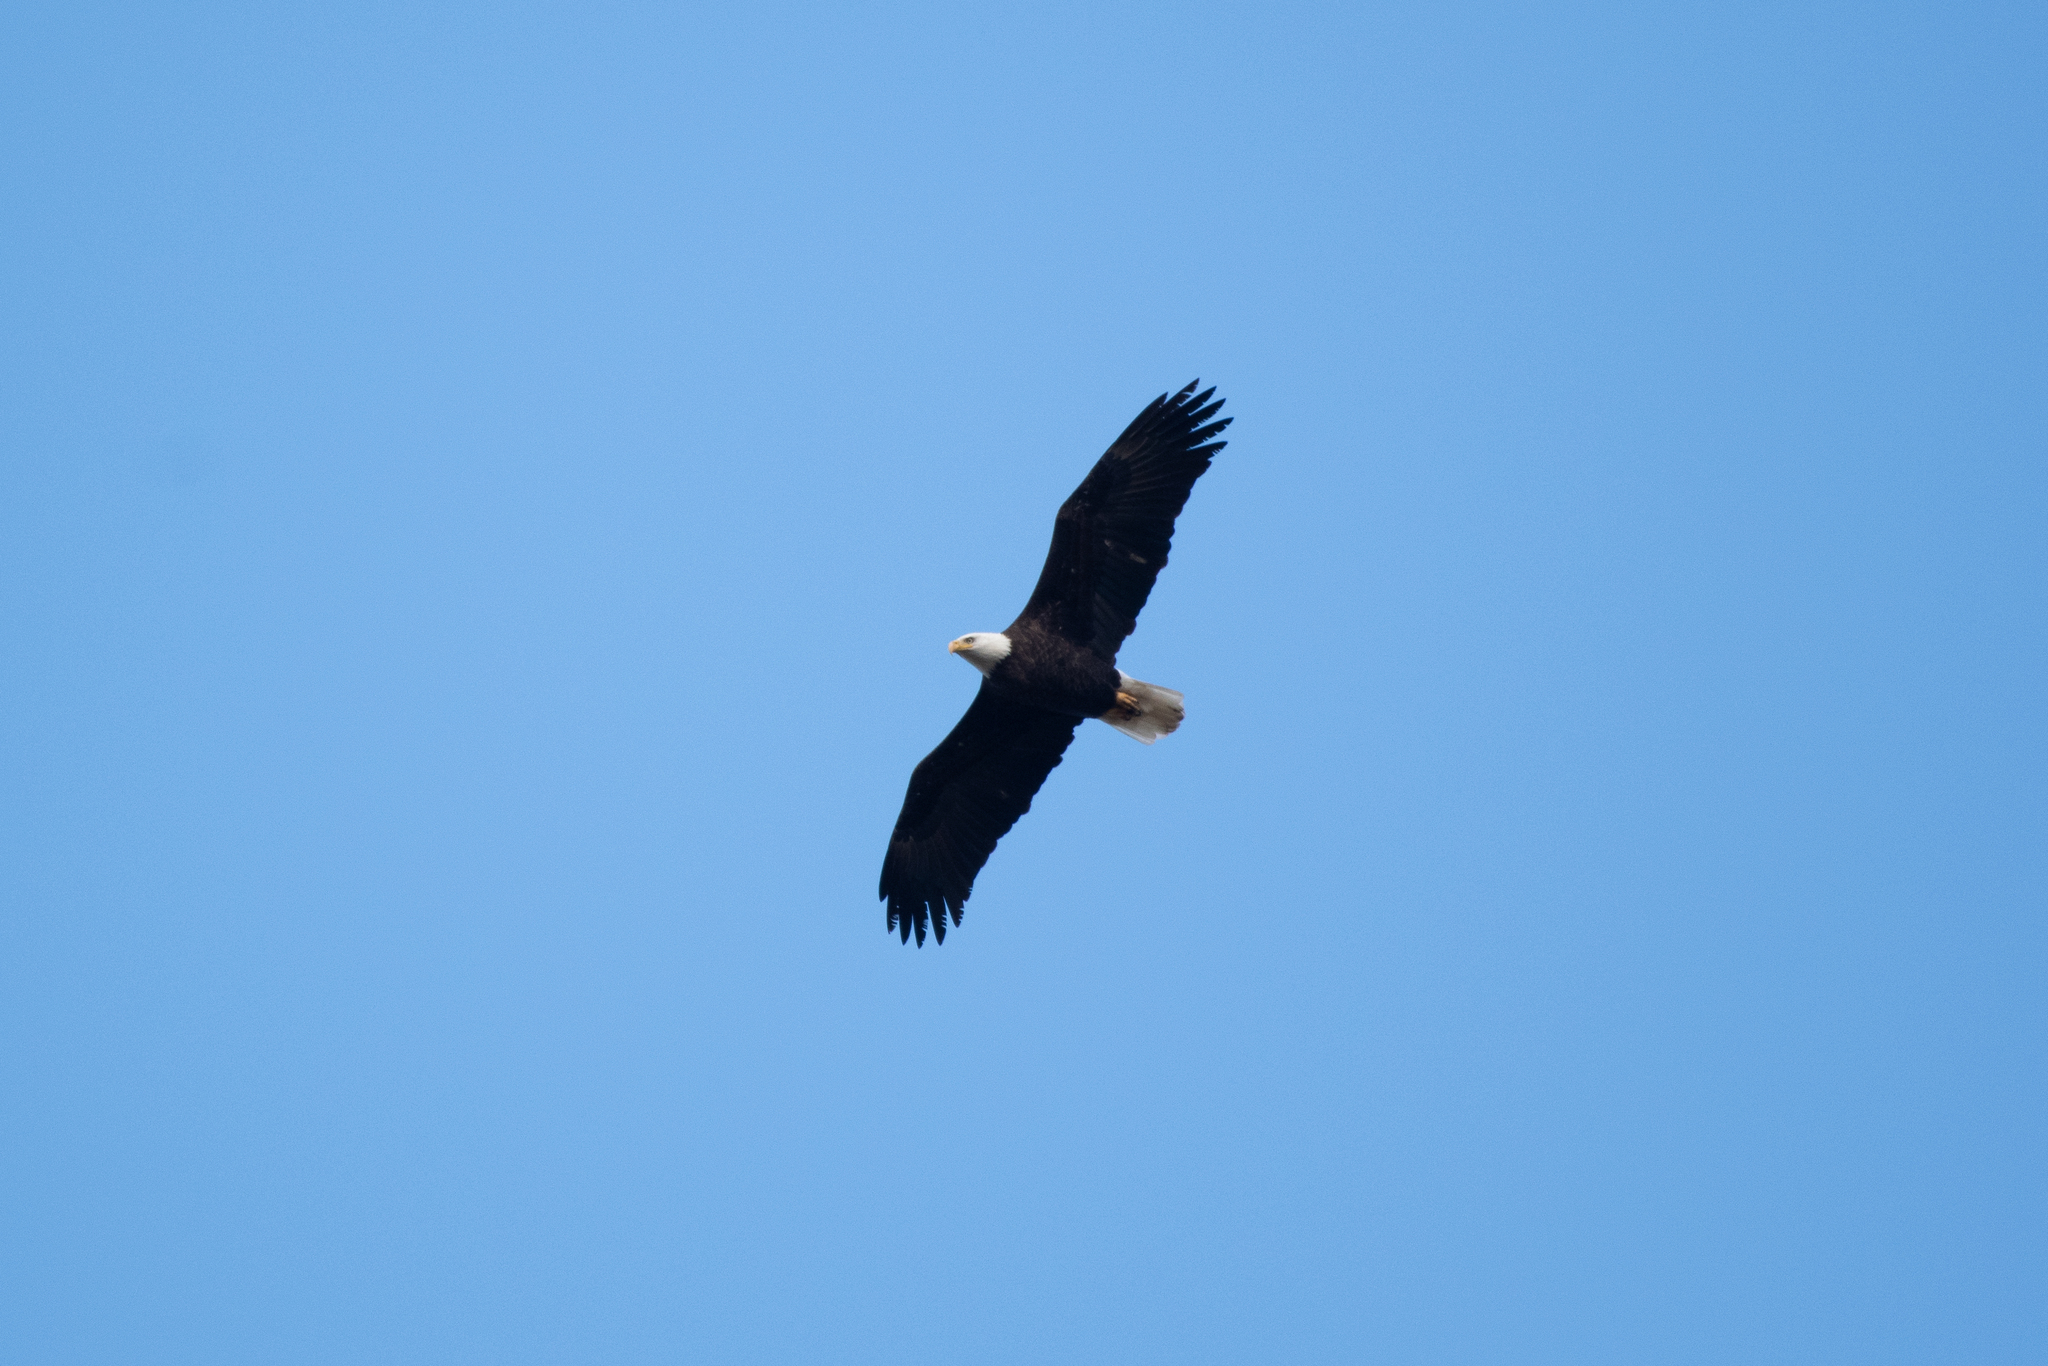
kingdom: Animalia
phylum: Chordata
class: Aves
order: Accipitriformes
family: Accipitridae
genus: Haliaeetus
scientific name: Haliaeetus leucocephalus
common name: Bald eagle
